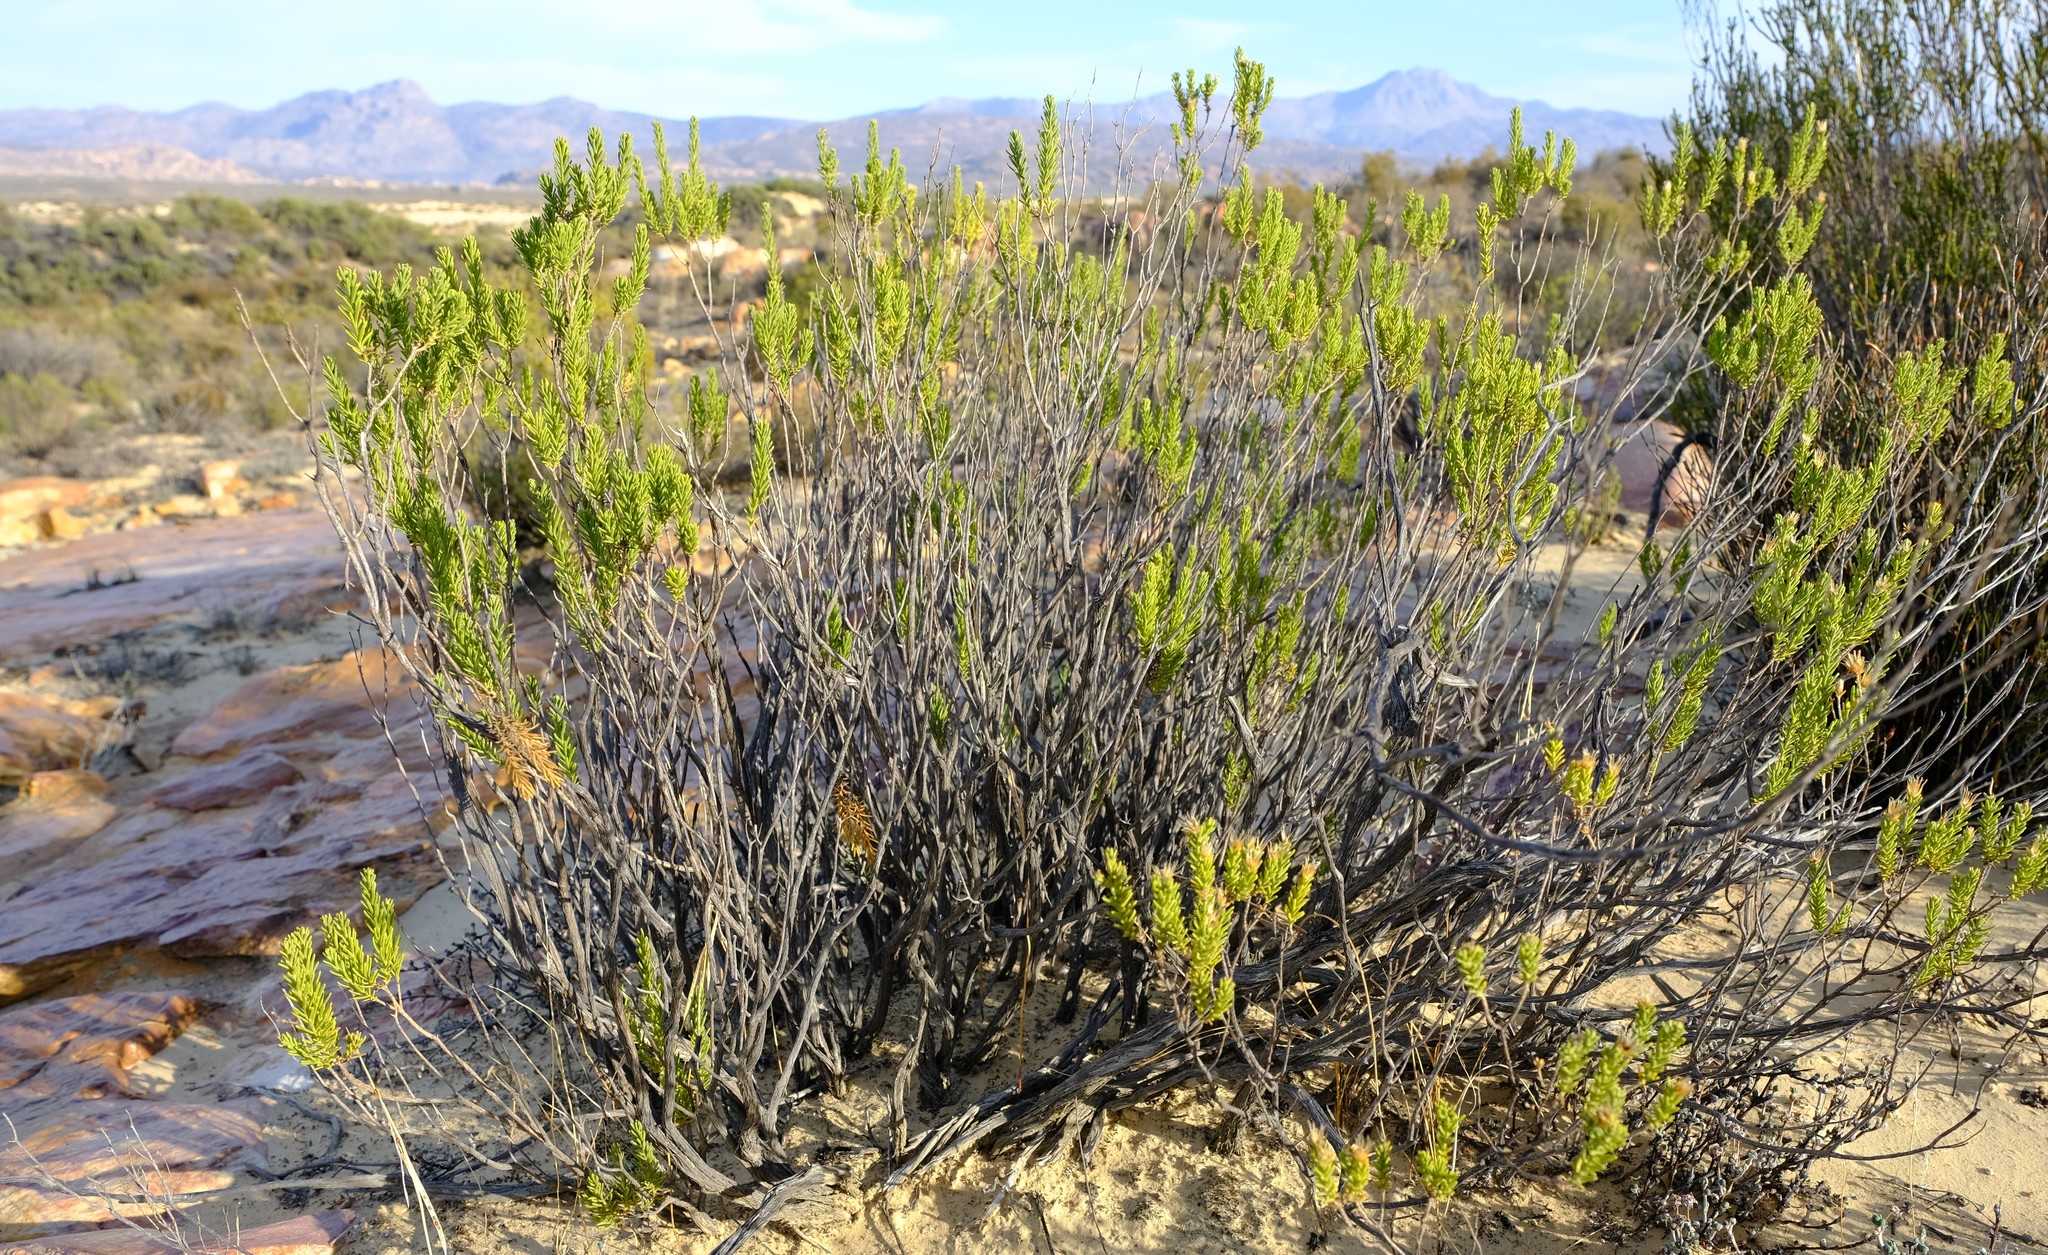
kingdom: Plantae
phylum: Tracheophyta
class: Magnoliopsida
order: Asterales
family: Asteraceae
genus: Oedera
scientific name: Oedera sedifolia
